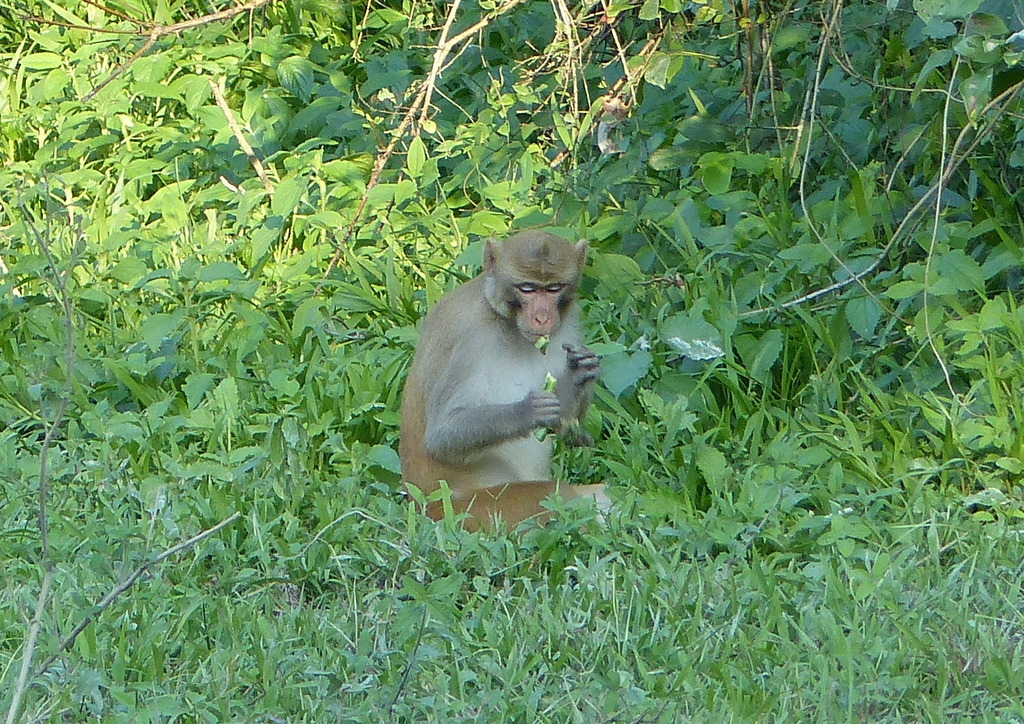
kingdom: Animalia
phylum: Chordata
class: Mammalia
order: Primates
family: Cercopithecidae
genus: Macaca
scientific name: Macaca mulatta
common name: Rhesus monkey
